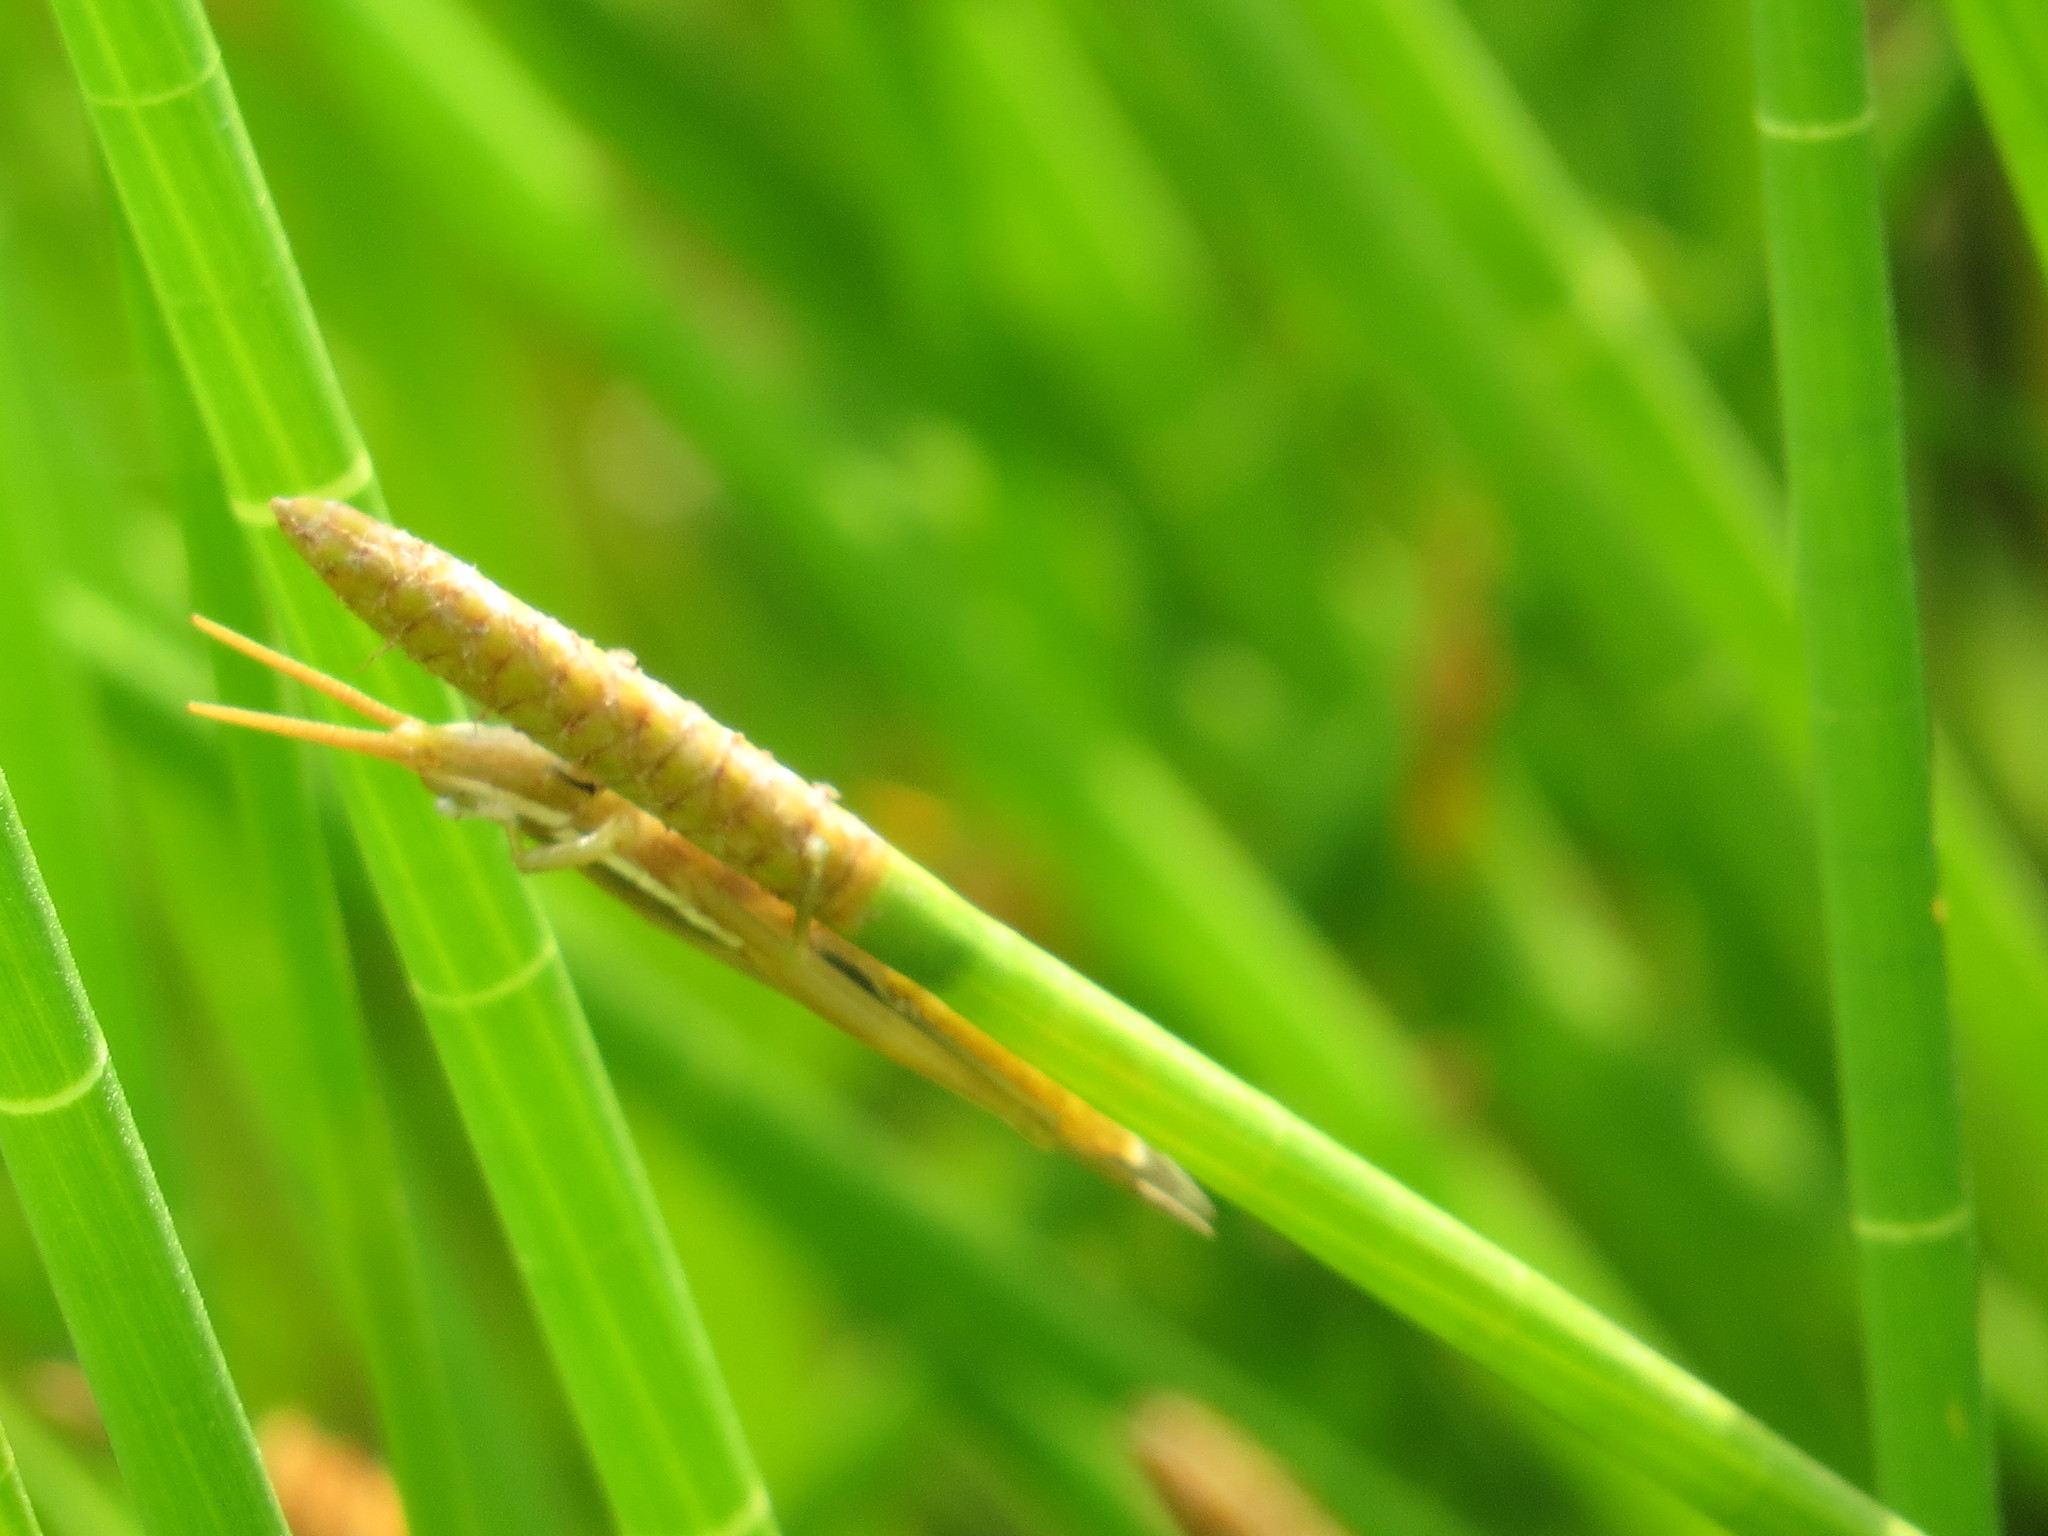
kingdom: Animalia
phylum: Arthropoda
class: Insecta
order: Orthoptera
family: Acrididae
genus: Leptysma
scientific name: Leptysma marginicollis
